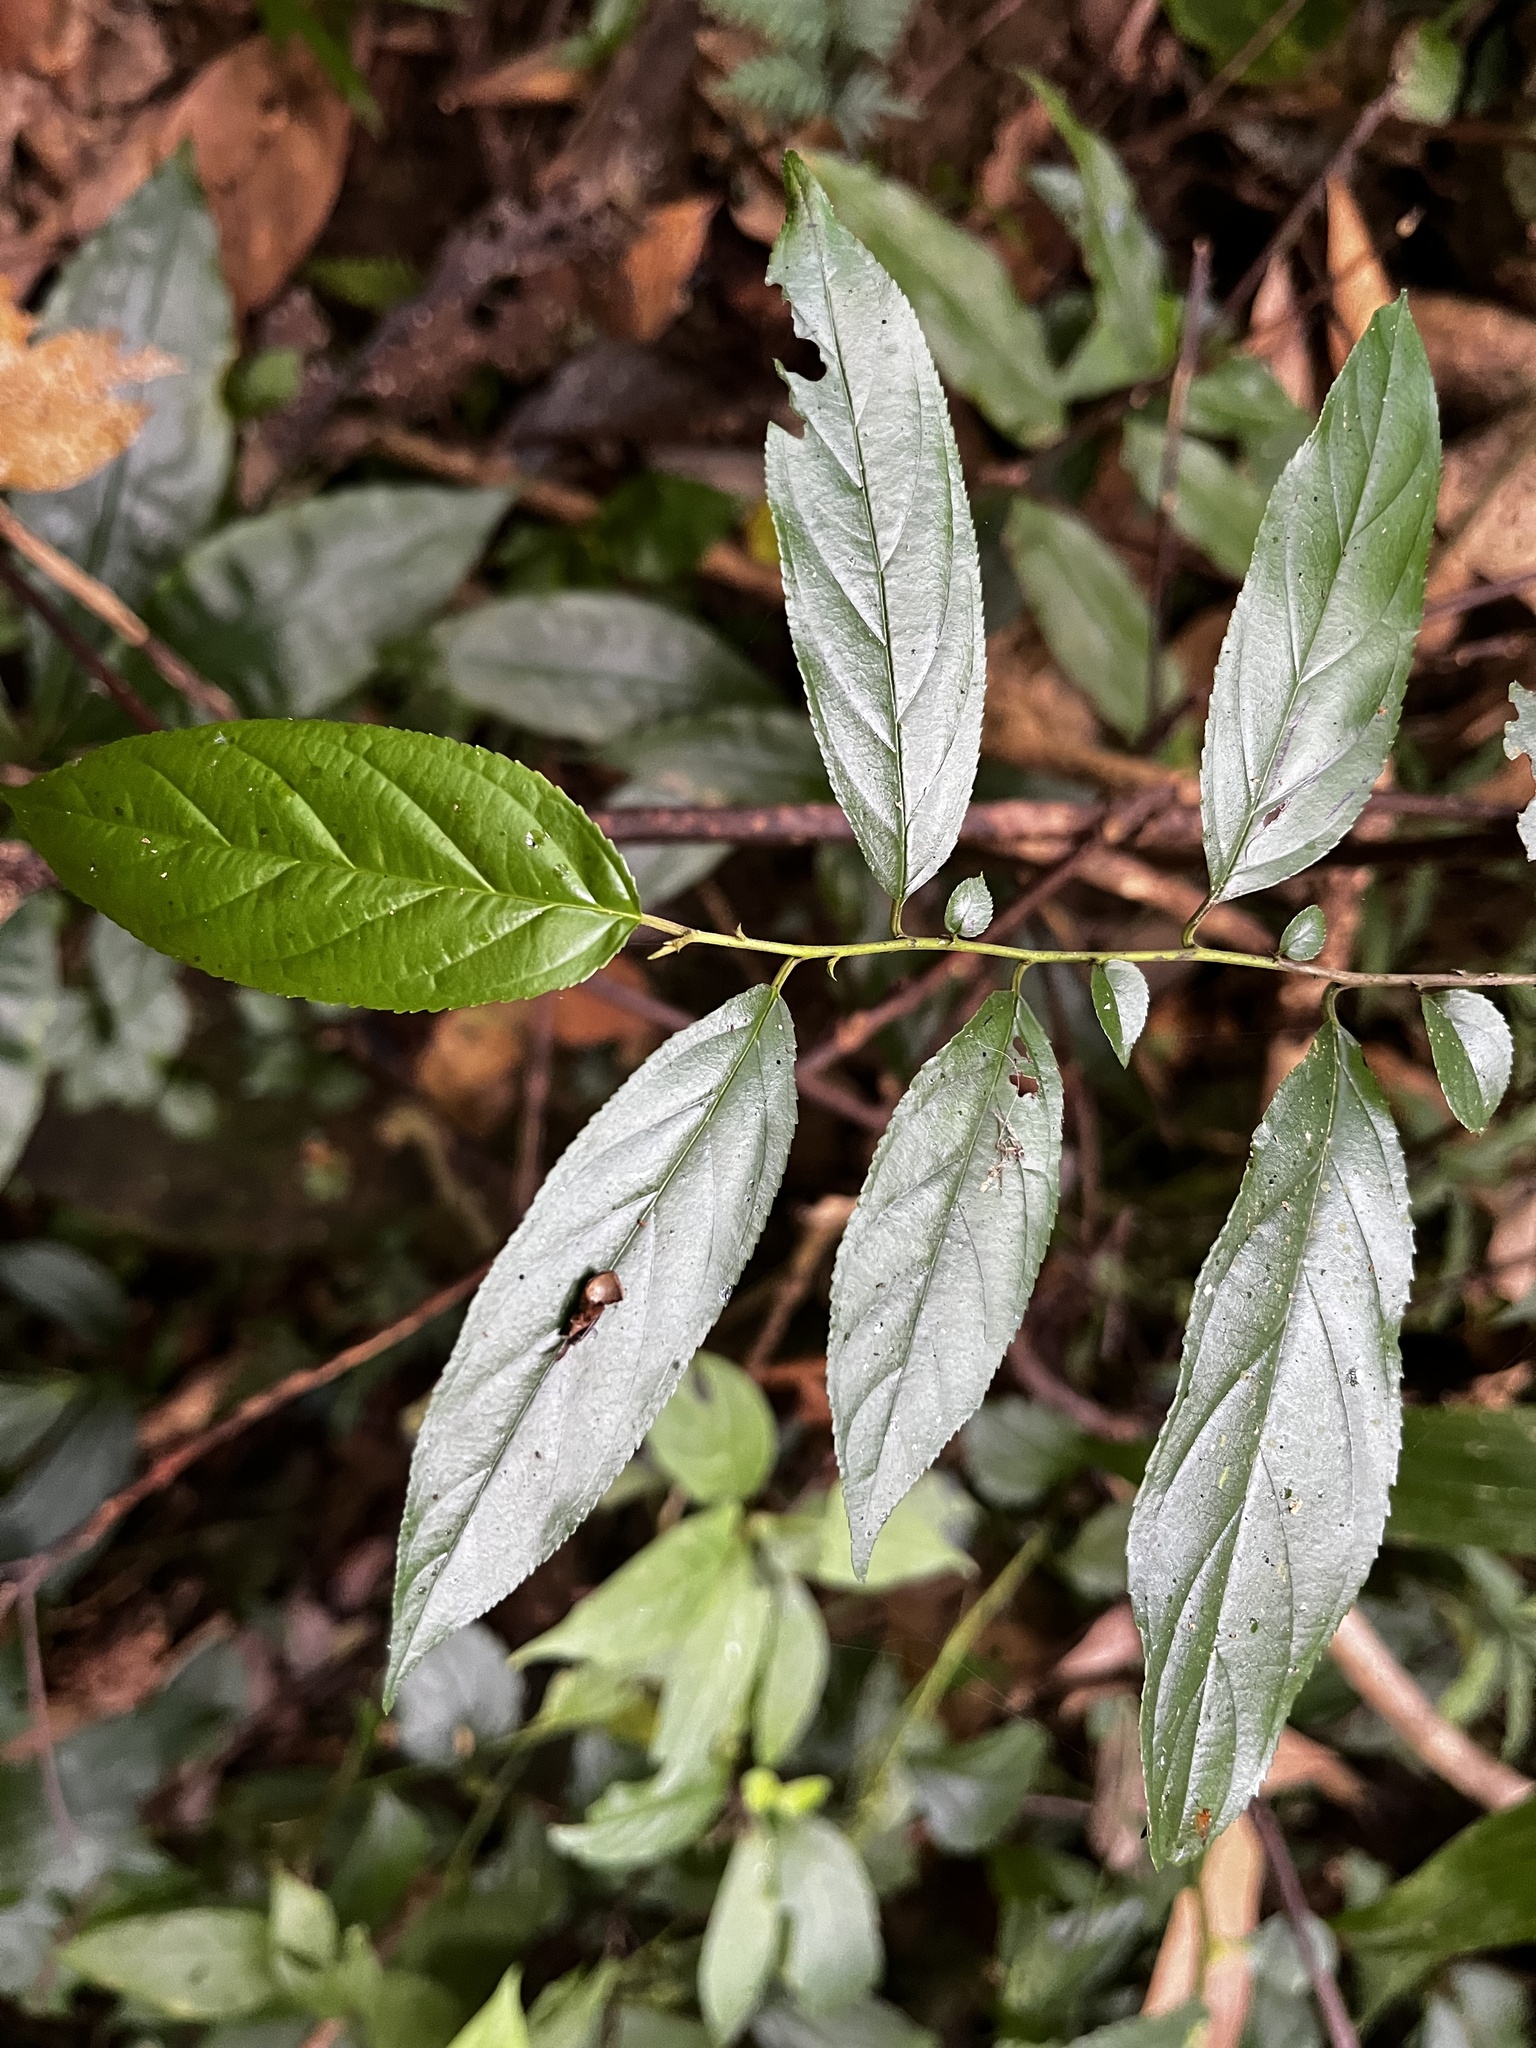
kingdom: Plantae
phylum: Tracheophyta
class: Magnoliopsida
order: Rosales
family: Rhamnaceae
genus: Rhamnus
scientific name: Rhamnus formosana
